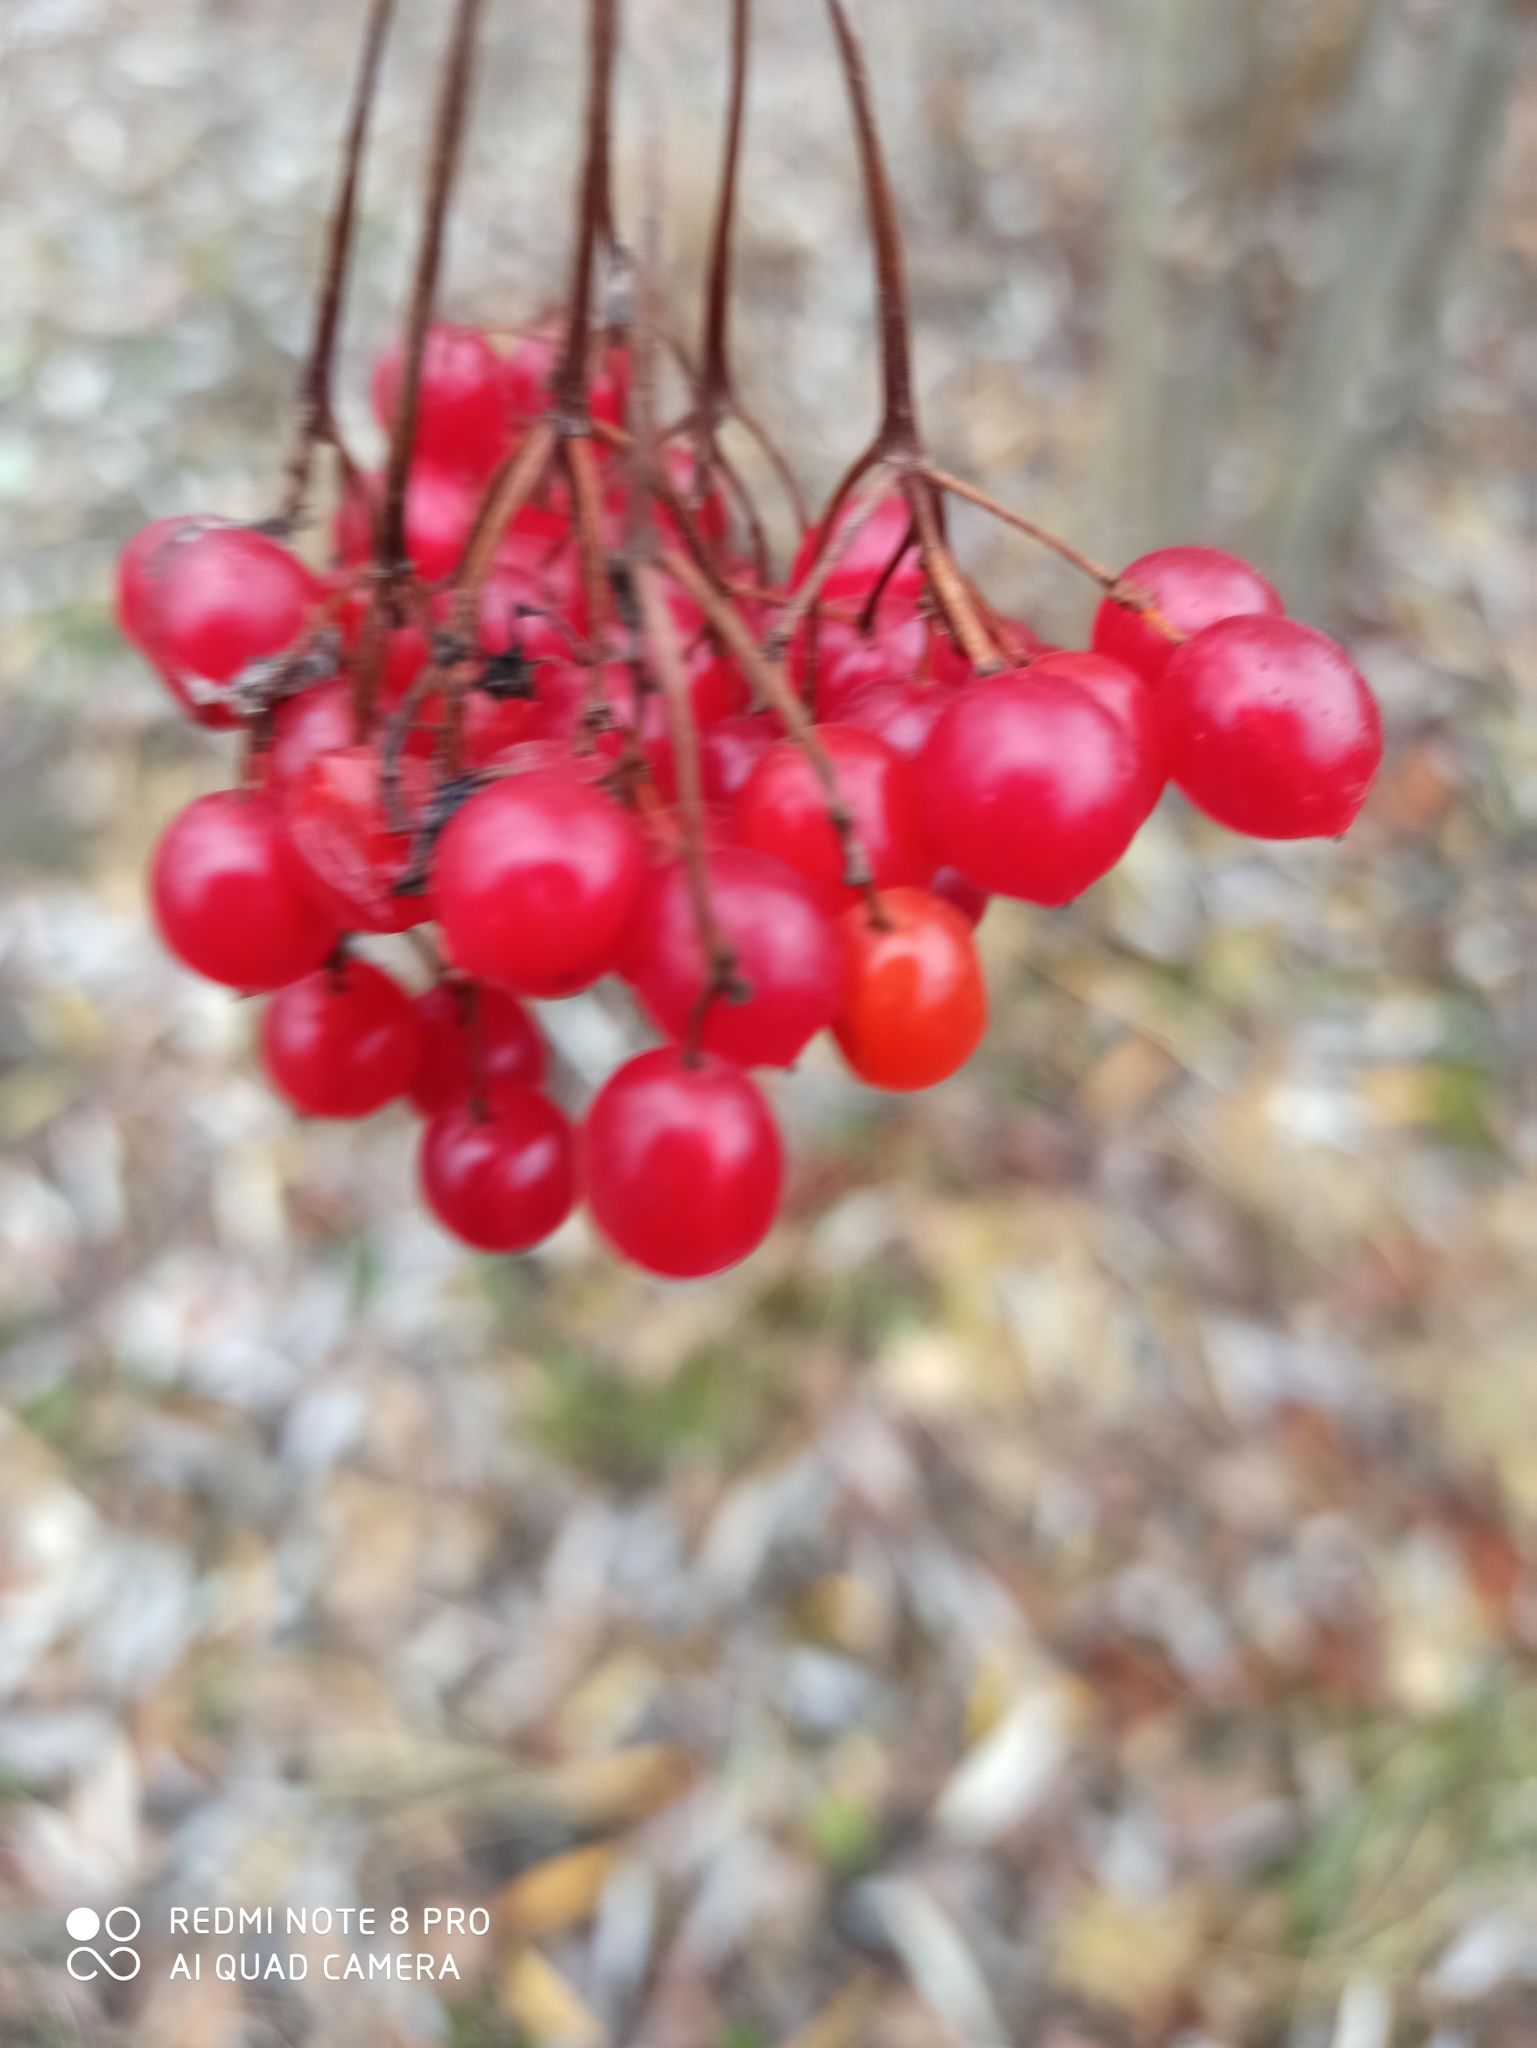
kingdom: Plantae
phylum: Tracheophyta
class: Magnoliopsida
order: Dipsacales
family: Viburnaceae
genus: Viburnum
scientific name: Viburnum opulus
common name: Guelder-rose
